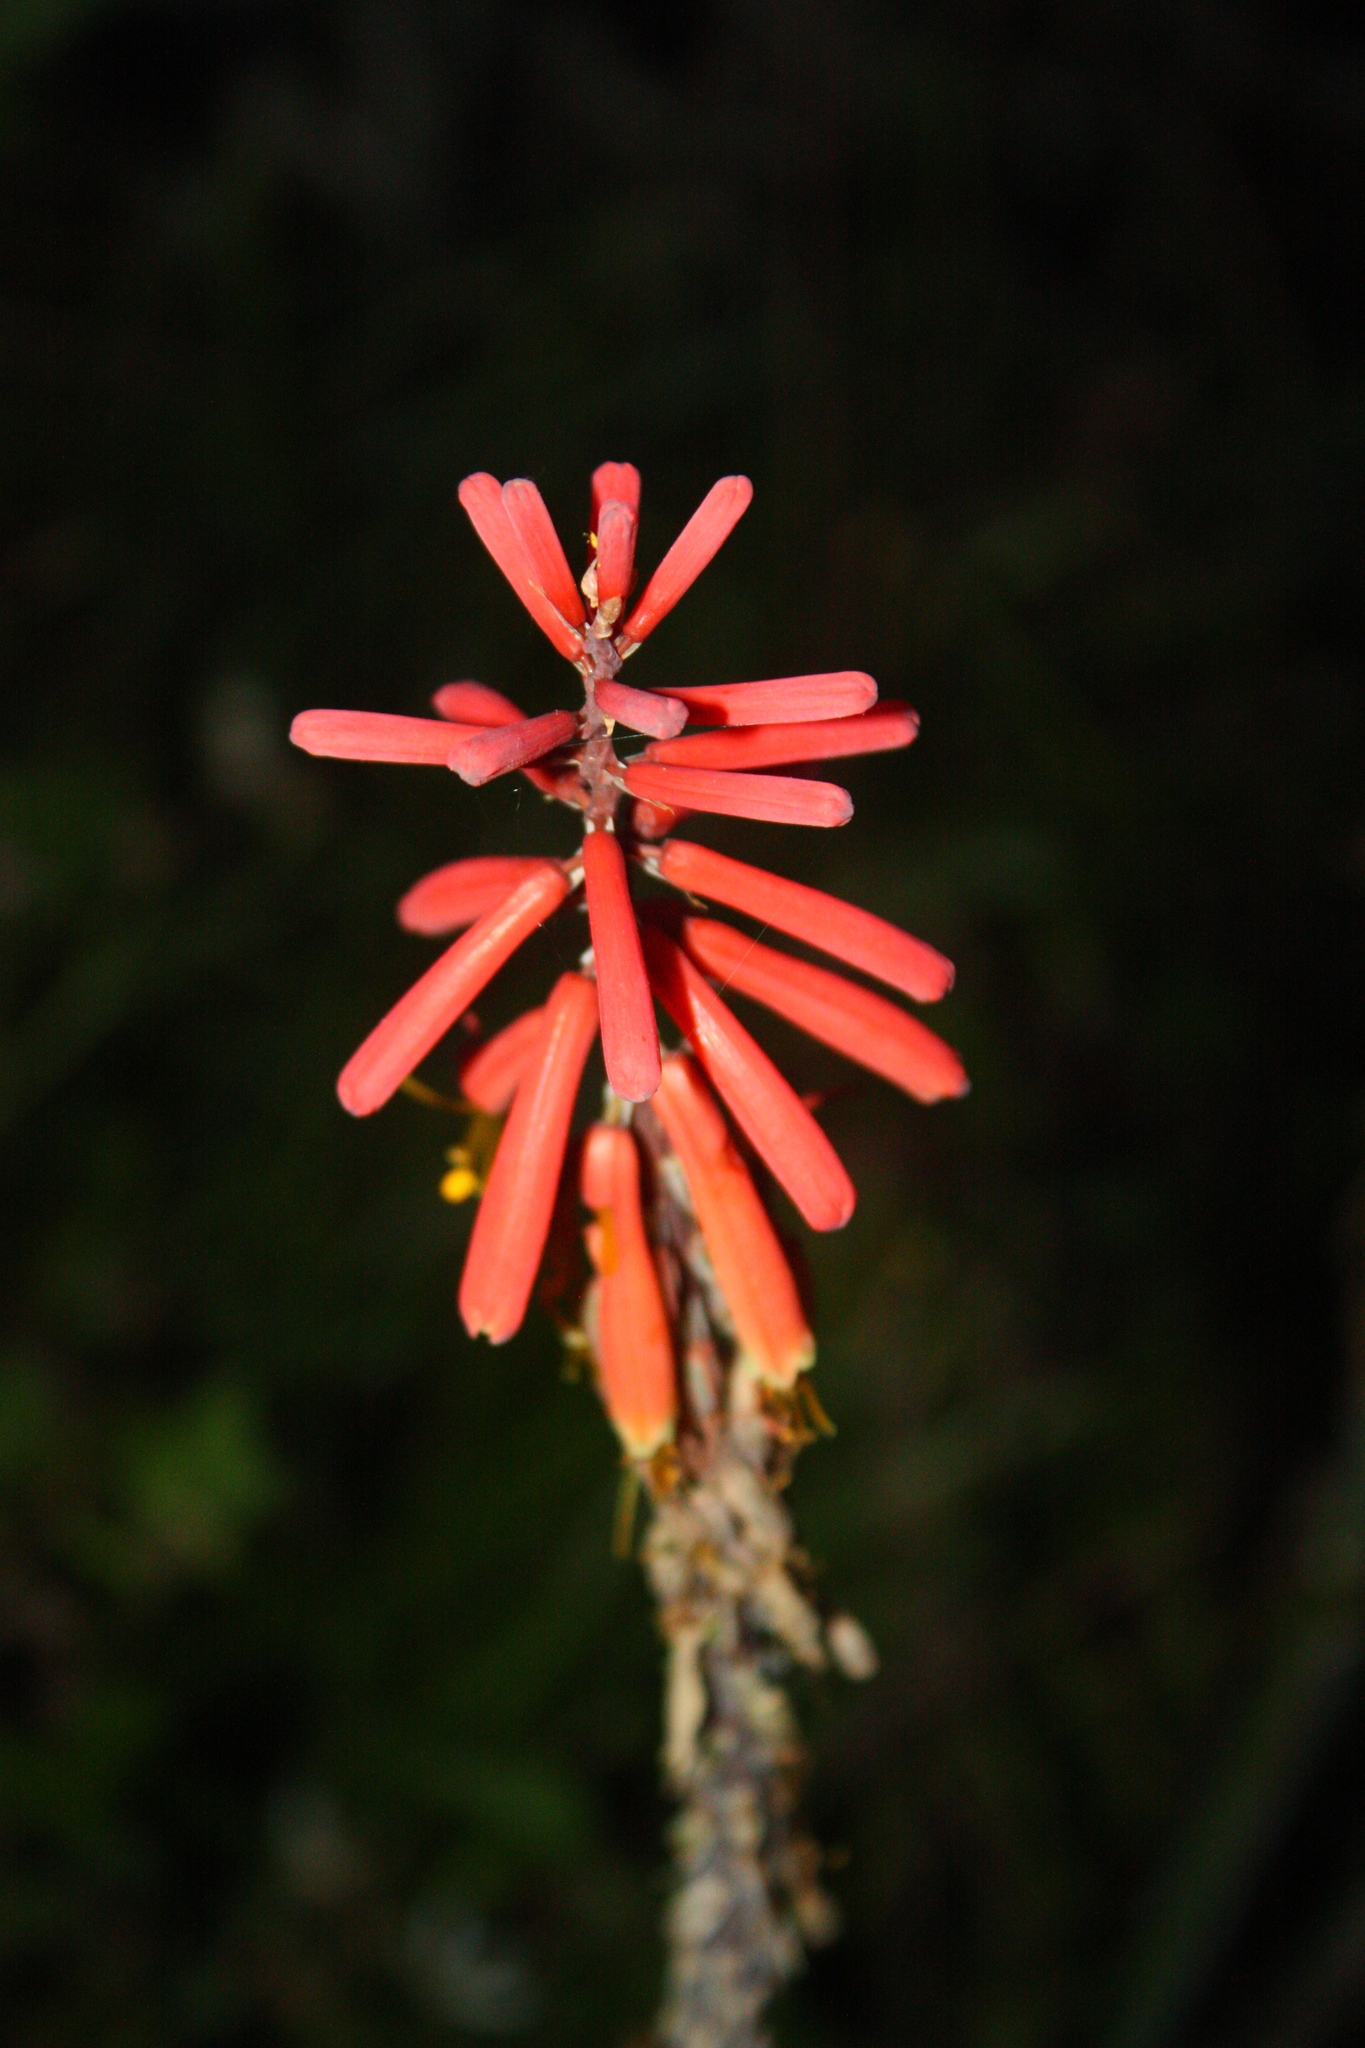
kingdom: Plantae
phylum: Tracheophyta
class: Liliopsida
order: Asparagales
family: Asphodelaceae
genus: Kniphofia
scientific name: Kniphofia uvaria
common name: Red-hot-poker
